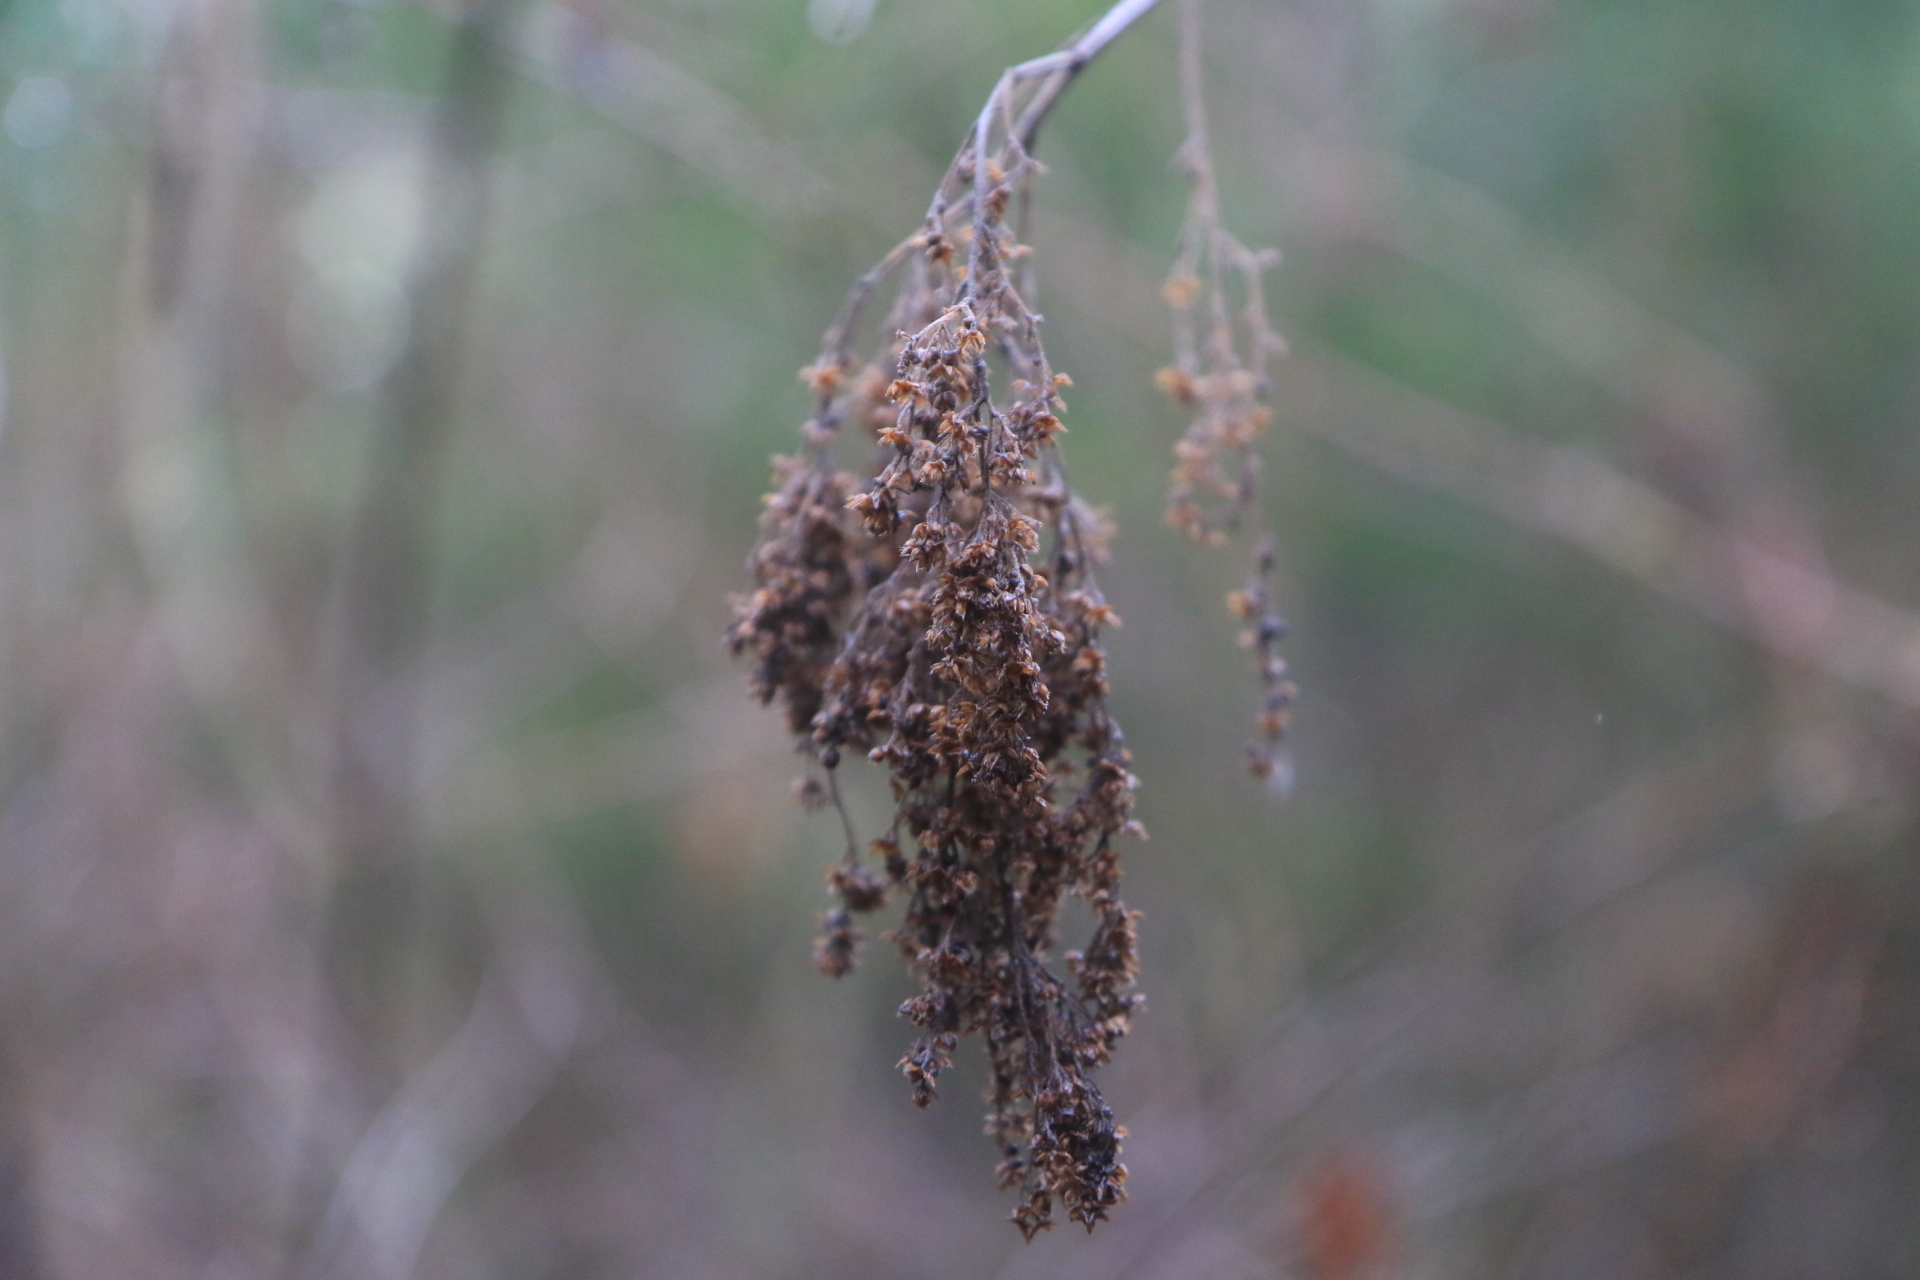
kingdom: Plantae
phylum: Tracheophyta
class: Magnoliopsida
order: Rosales
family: Rosaceae
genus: Holodiscus
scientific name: Holodiscus discolor
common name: Oceanspray
